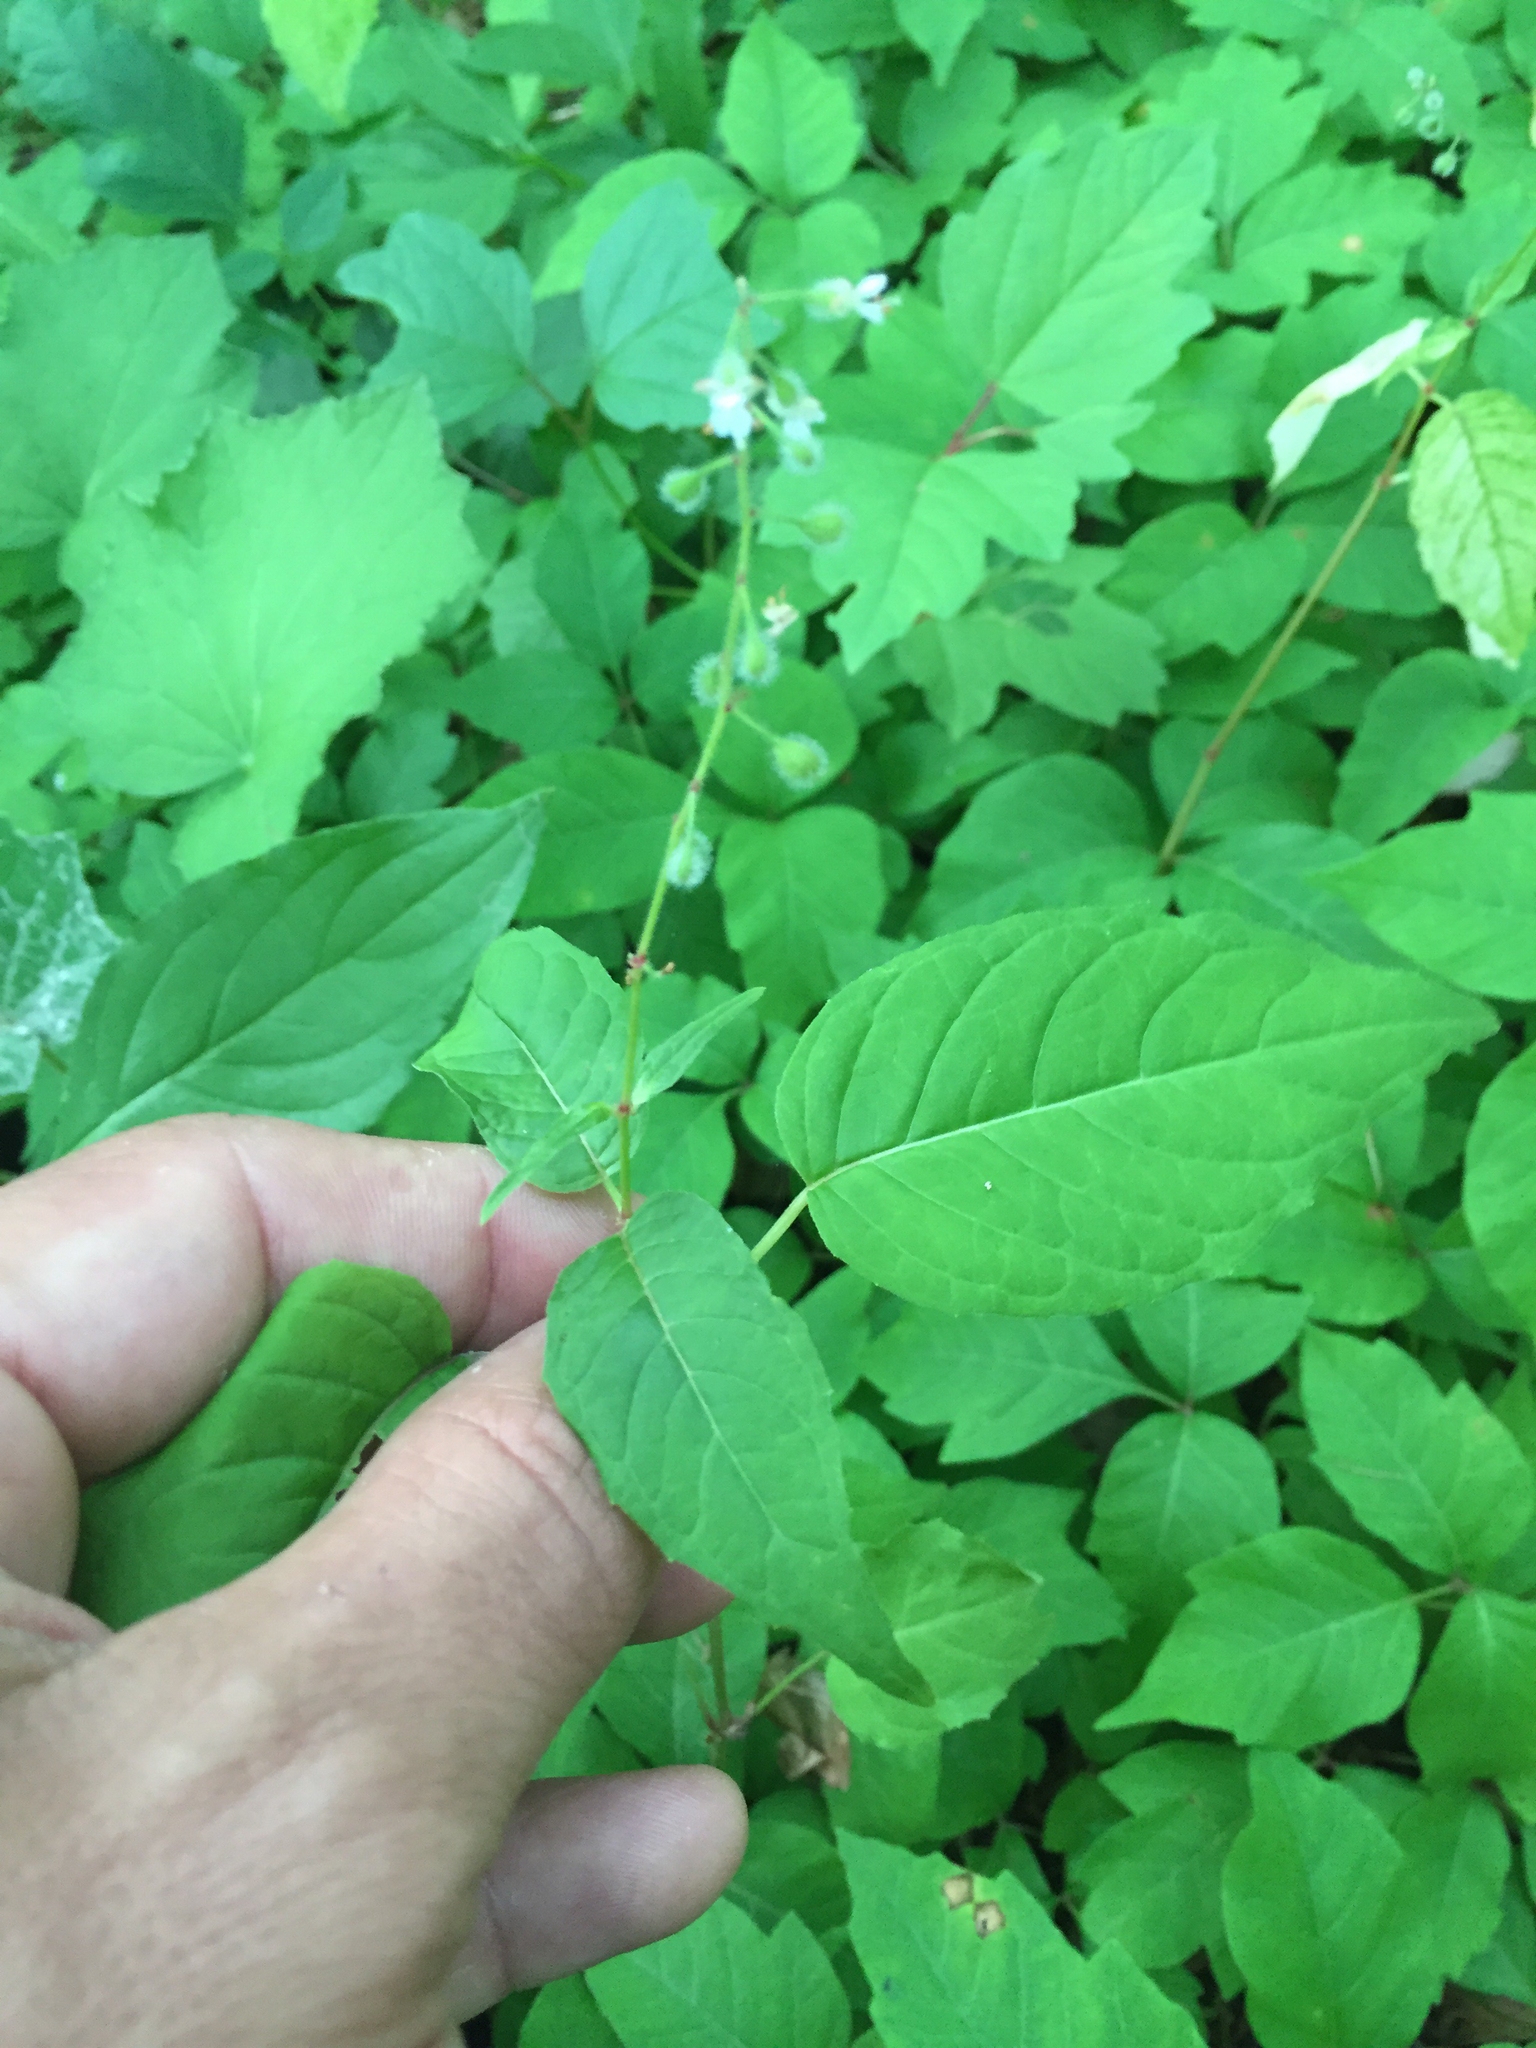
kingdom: Plantae
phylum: Tracheophyta
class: Magnoliopsida
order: Myrtales
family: Onagraceae
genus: Circaea
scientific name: Circaea canadensis
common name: Broad-leaved enchanter's nightshade
